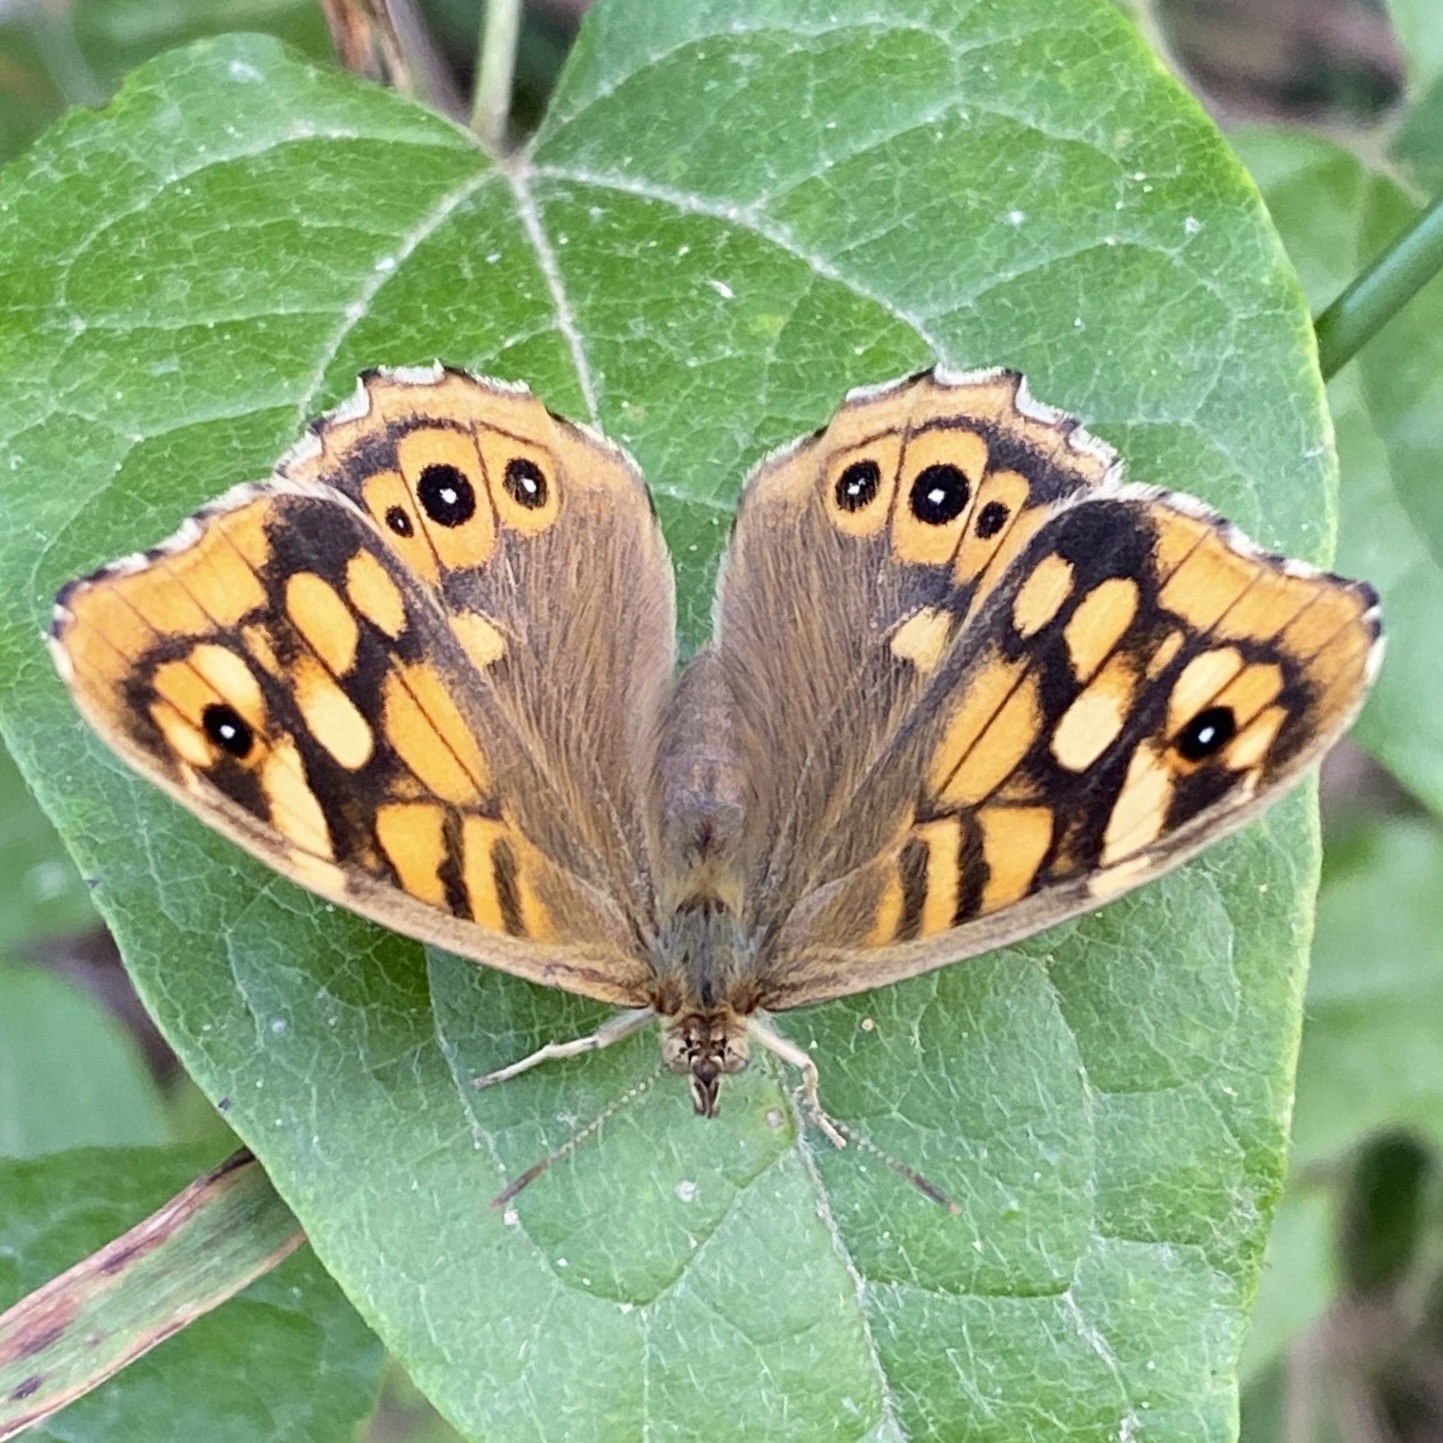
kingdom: Animalia
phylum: Arthropoda
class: Insecta
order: Lepidoptera
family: Nymphalidae
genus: Pararge
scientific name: Pararge aegeria
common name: Speckled wood
